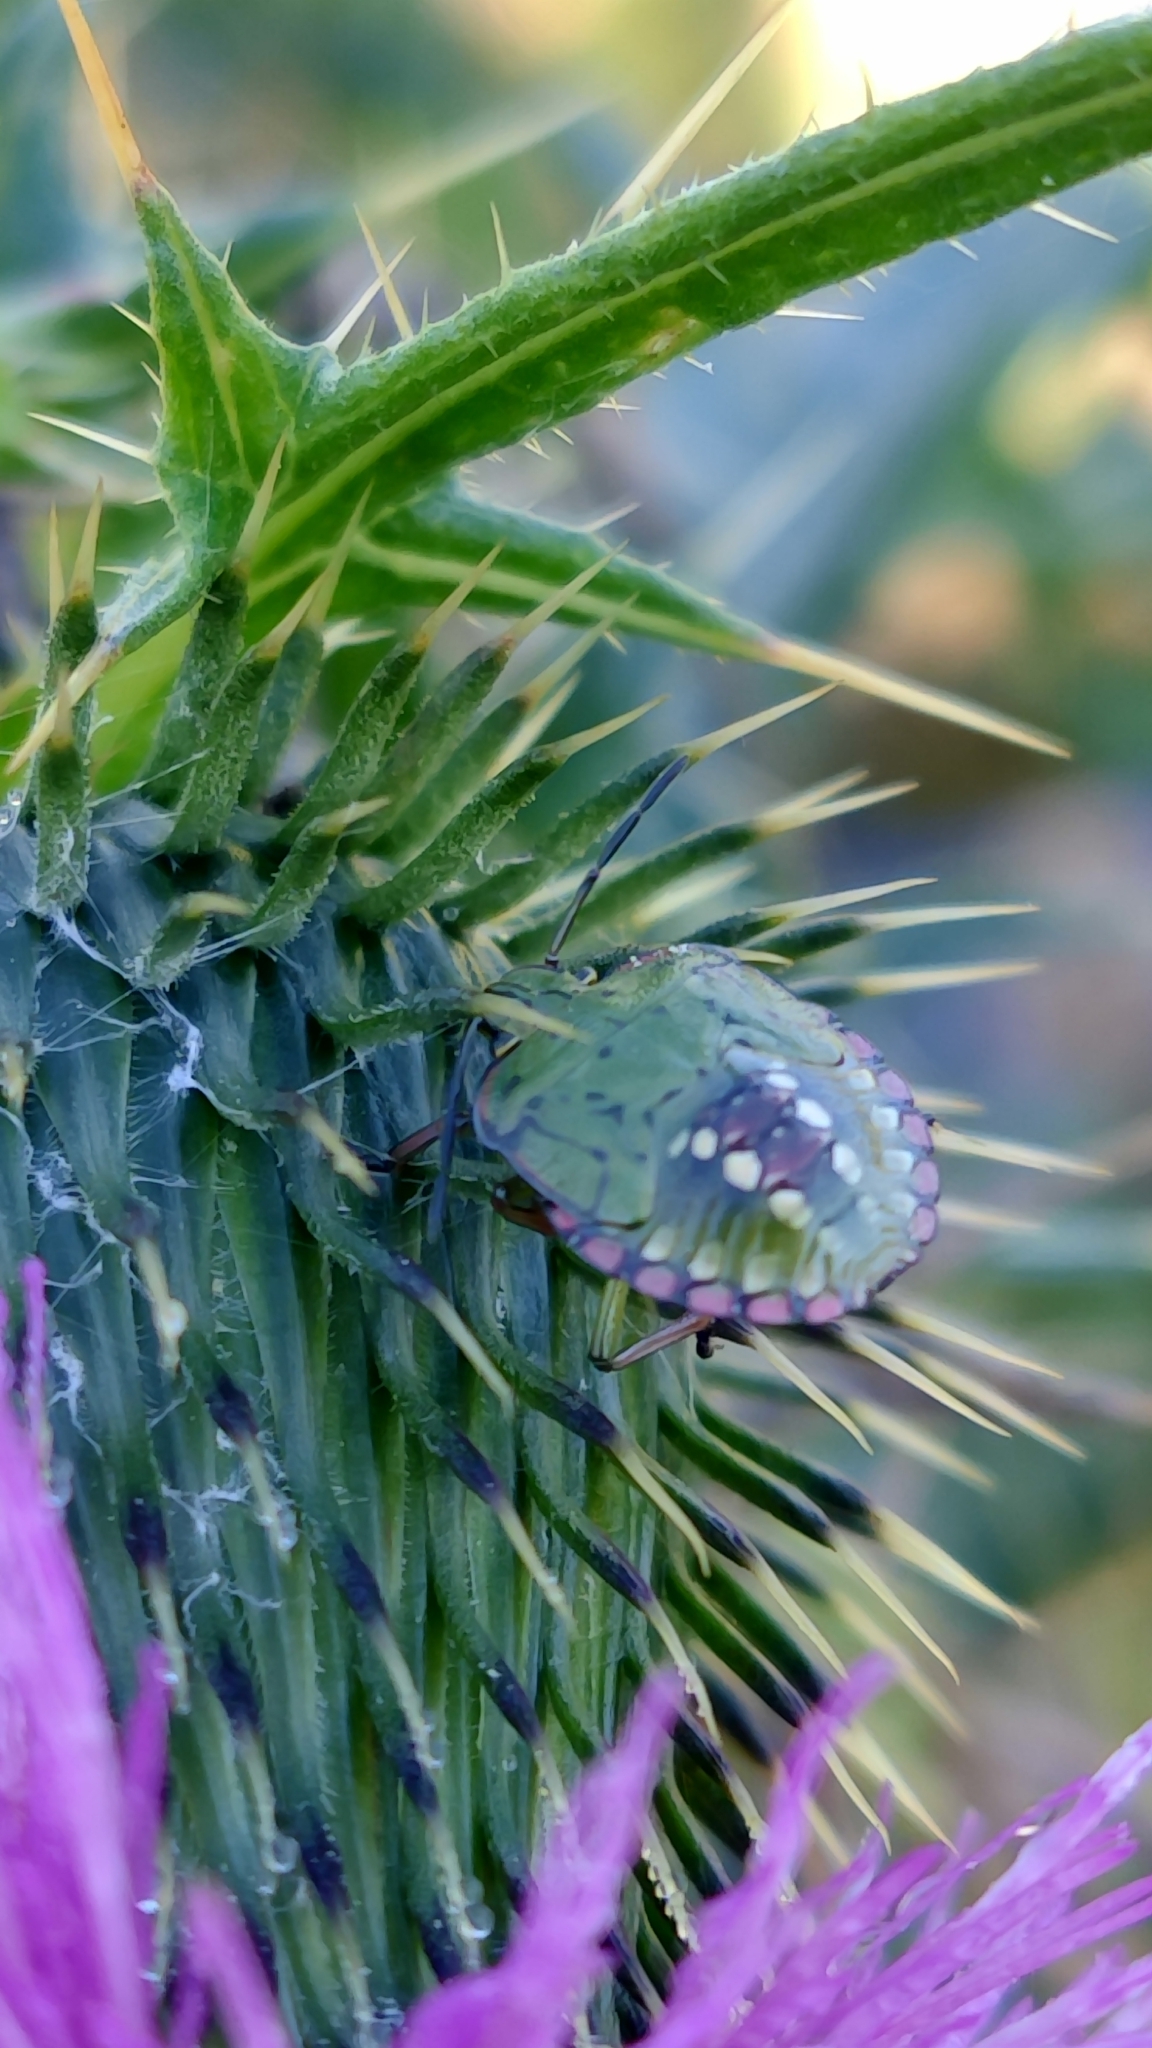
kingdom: Animalia
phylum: Arthropoda
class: Insecta
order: Hemiptera
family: Pentatomidae
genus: Nezara
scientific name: Nezara viridula
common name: Southern green stink bug
